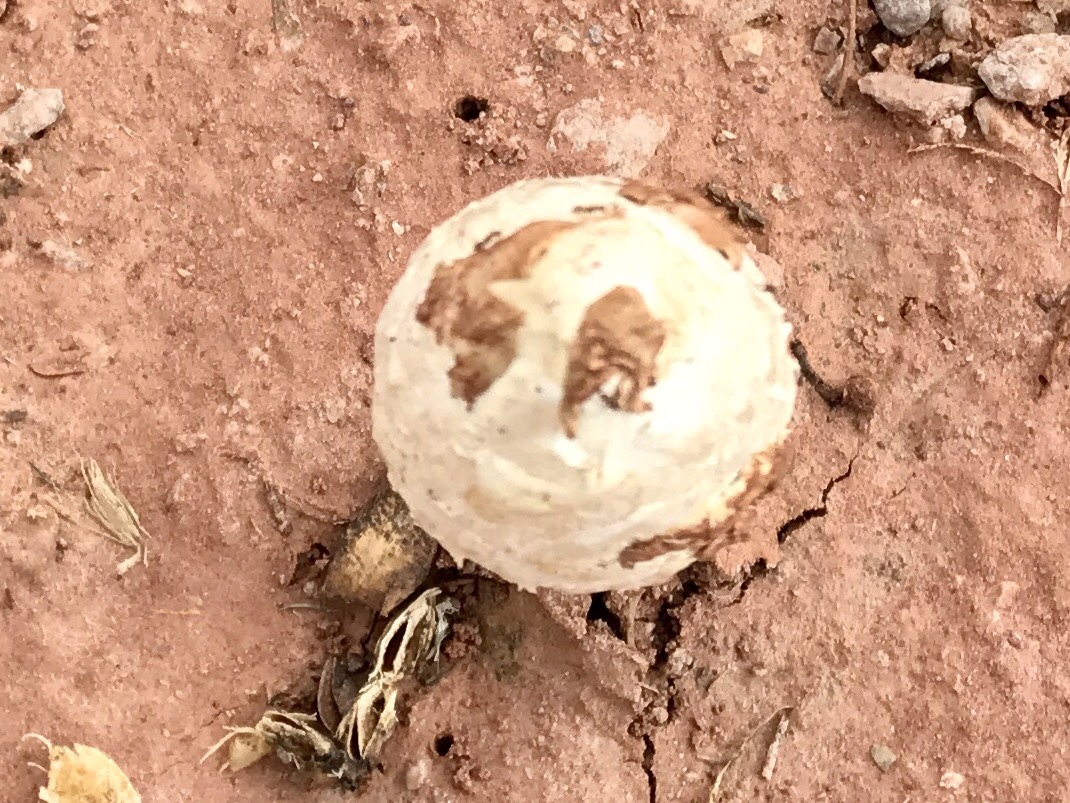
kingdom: Fungi
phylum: Basidiomycota
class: Agaricomycetes
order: Agaricales
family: Agaricaceae
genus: Podaxis
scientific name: Podaxis pistillaris
